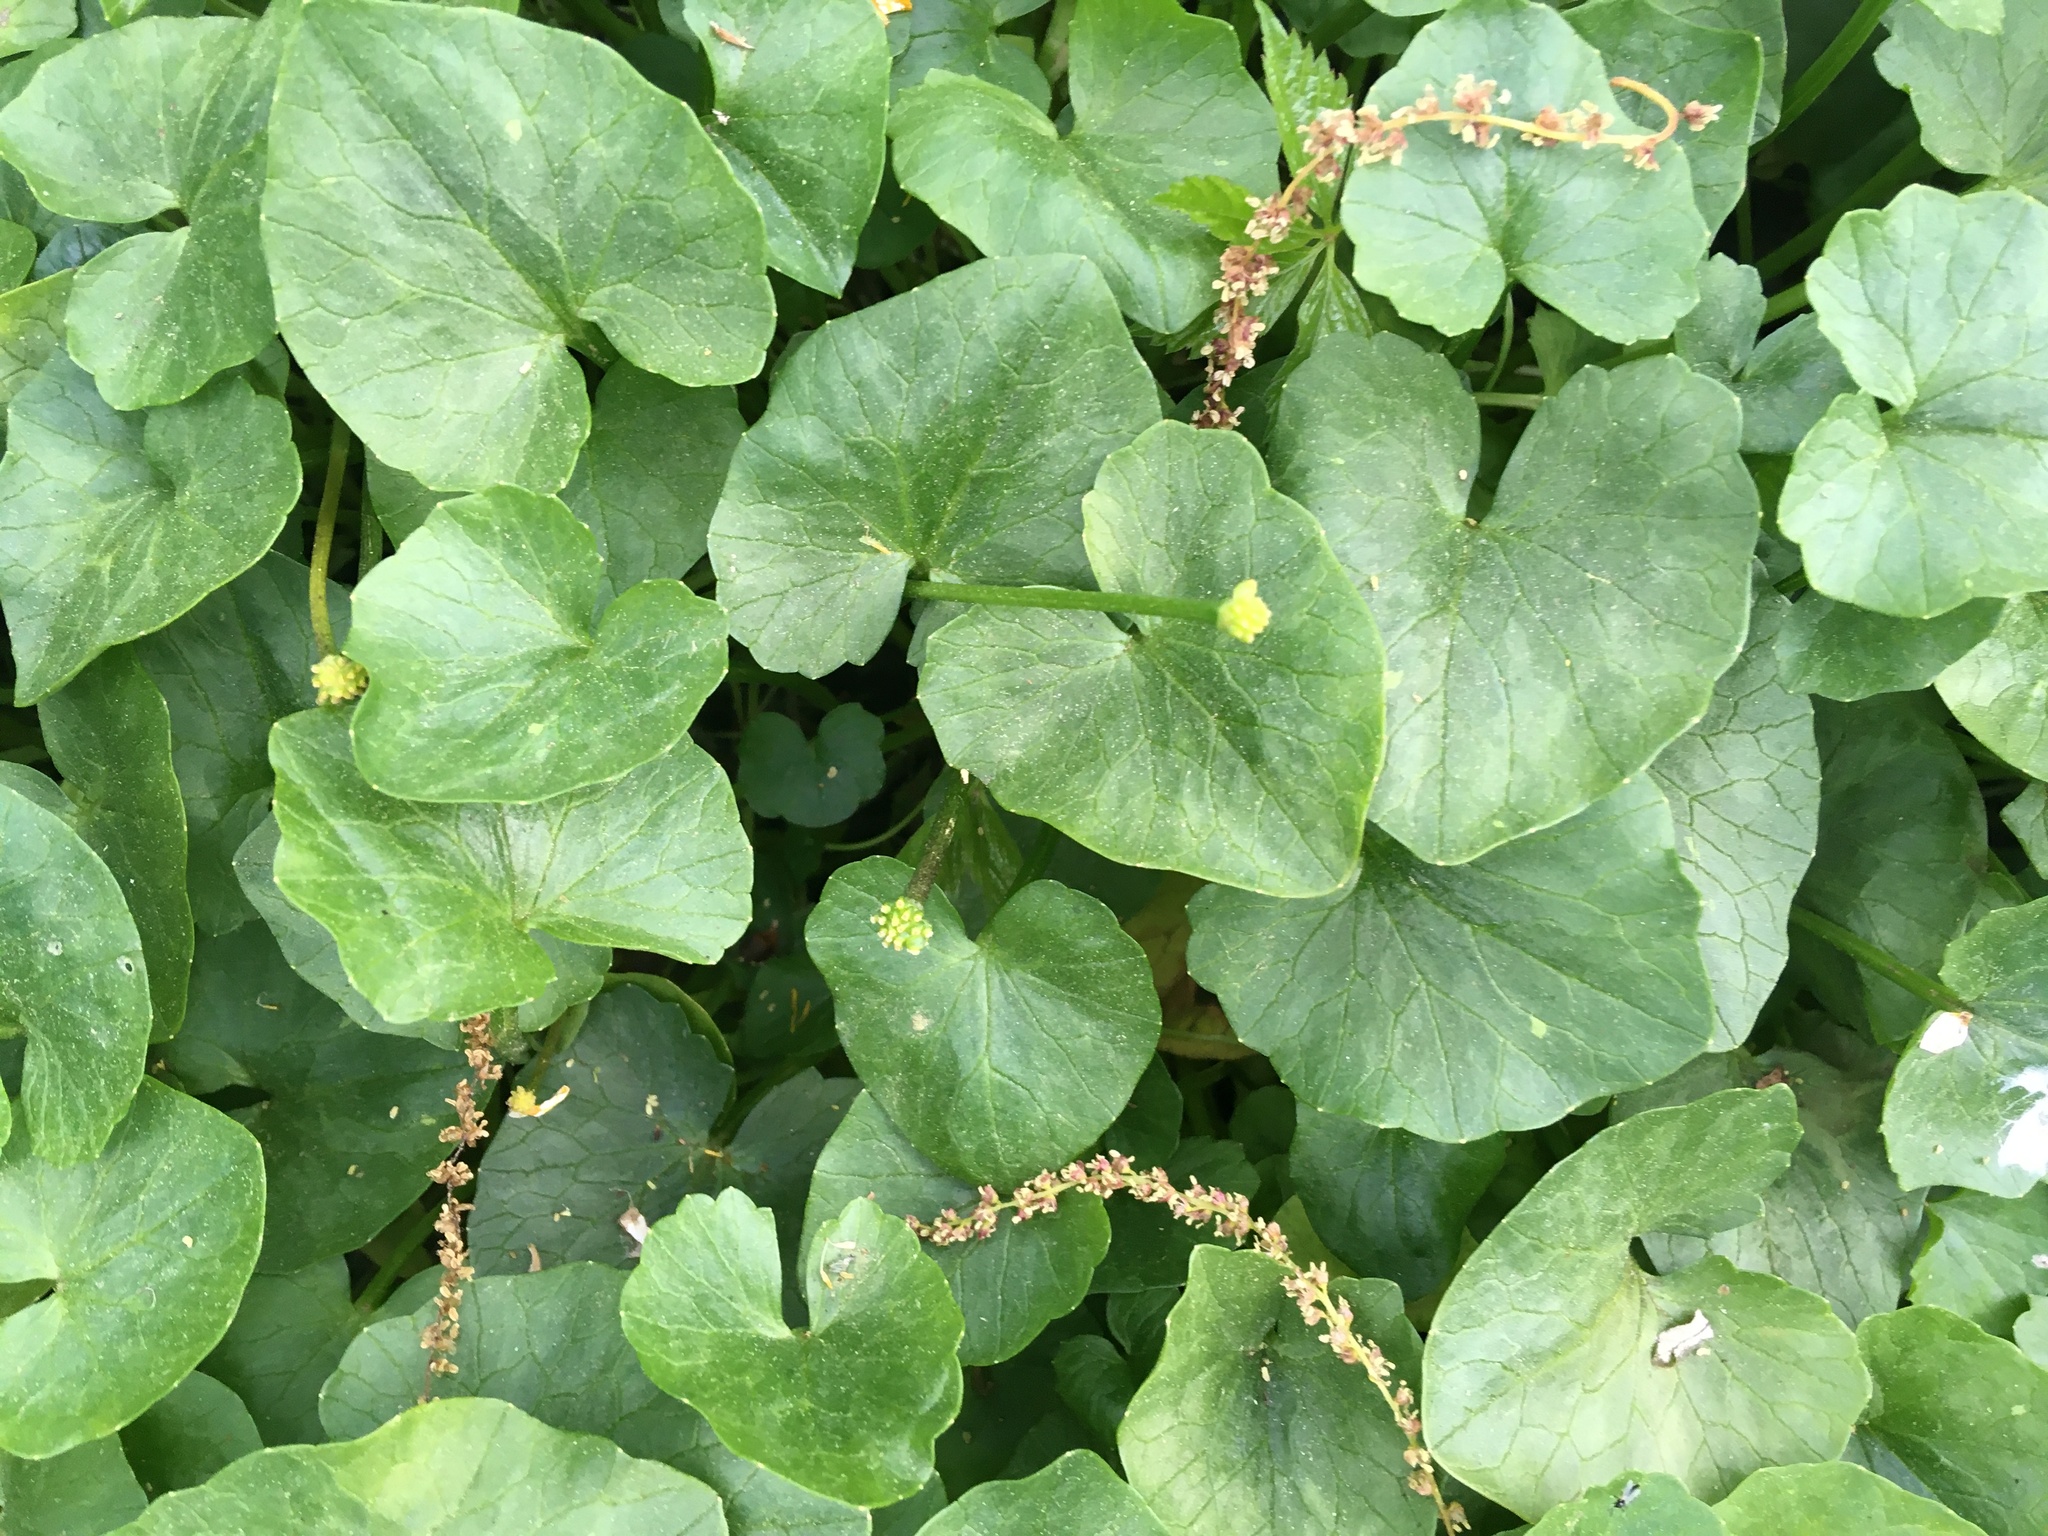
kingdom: Plantae
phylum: Tracheophyta
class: Magnoliopsida
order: Ranunculales
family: Ranunculaceae
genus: Ficaria
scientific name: Ficaria verna
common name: Lesser celandine
